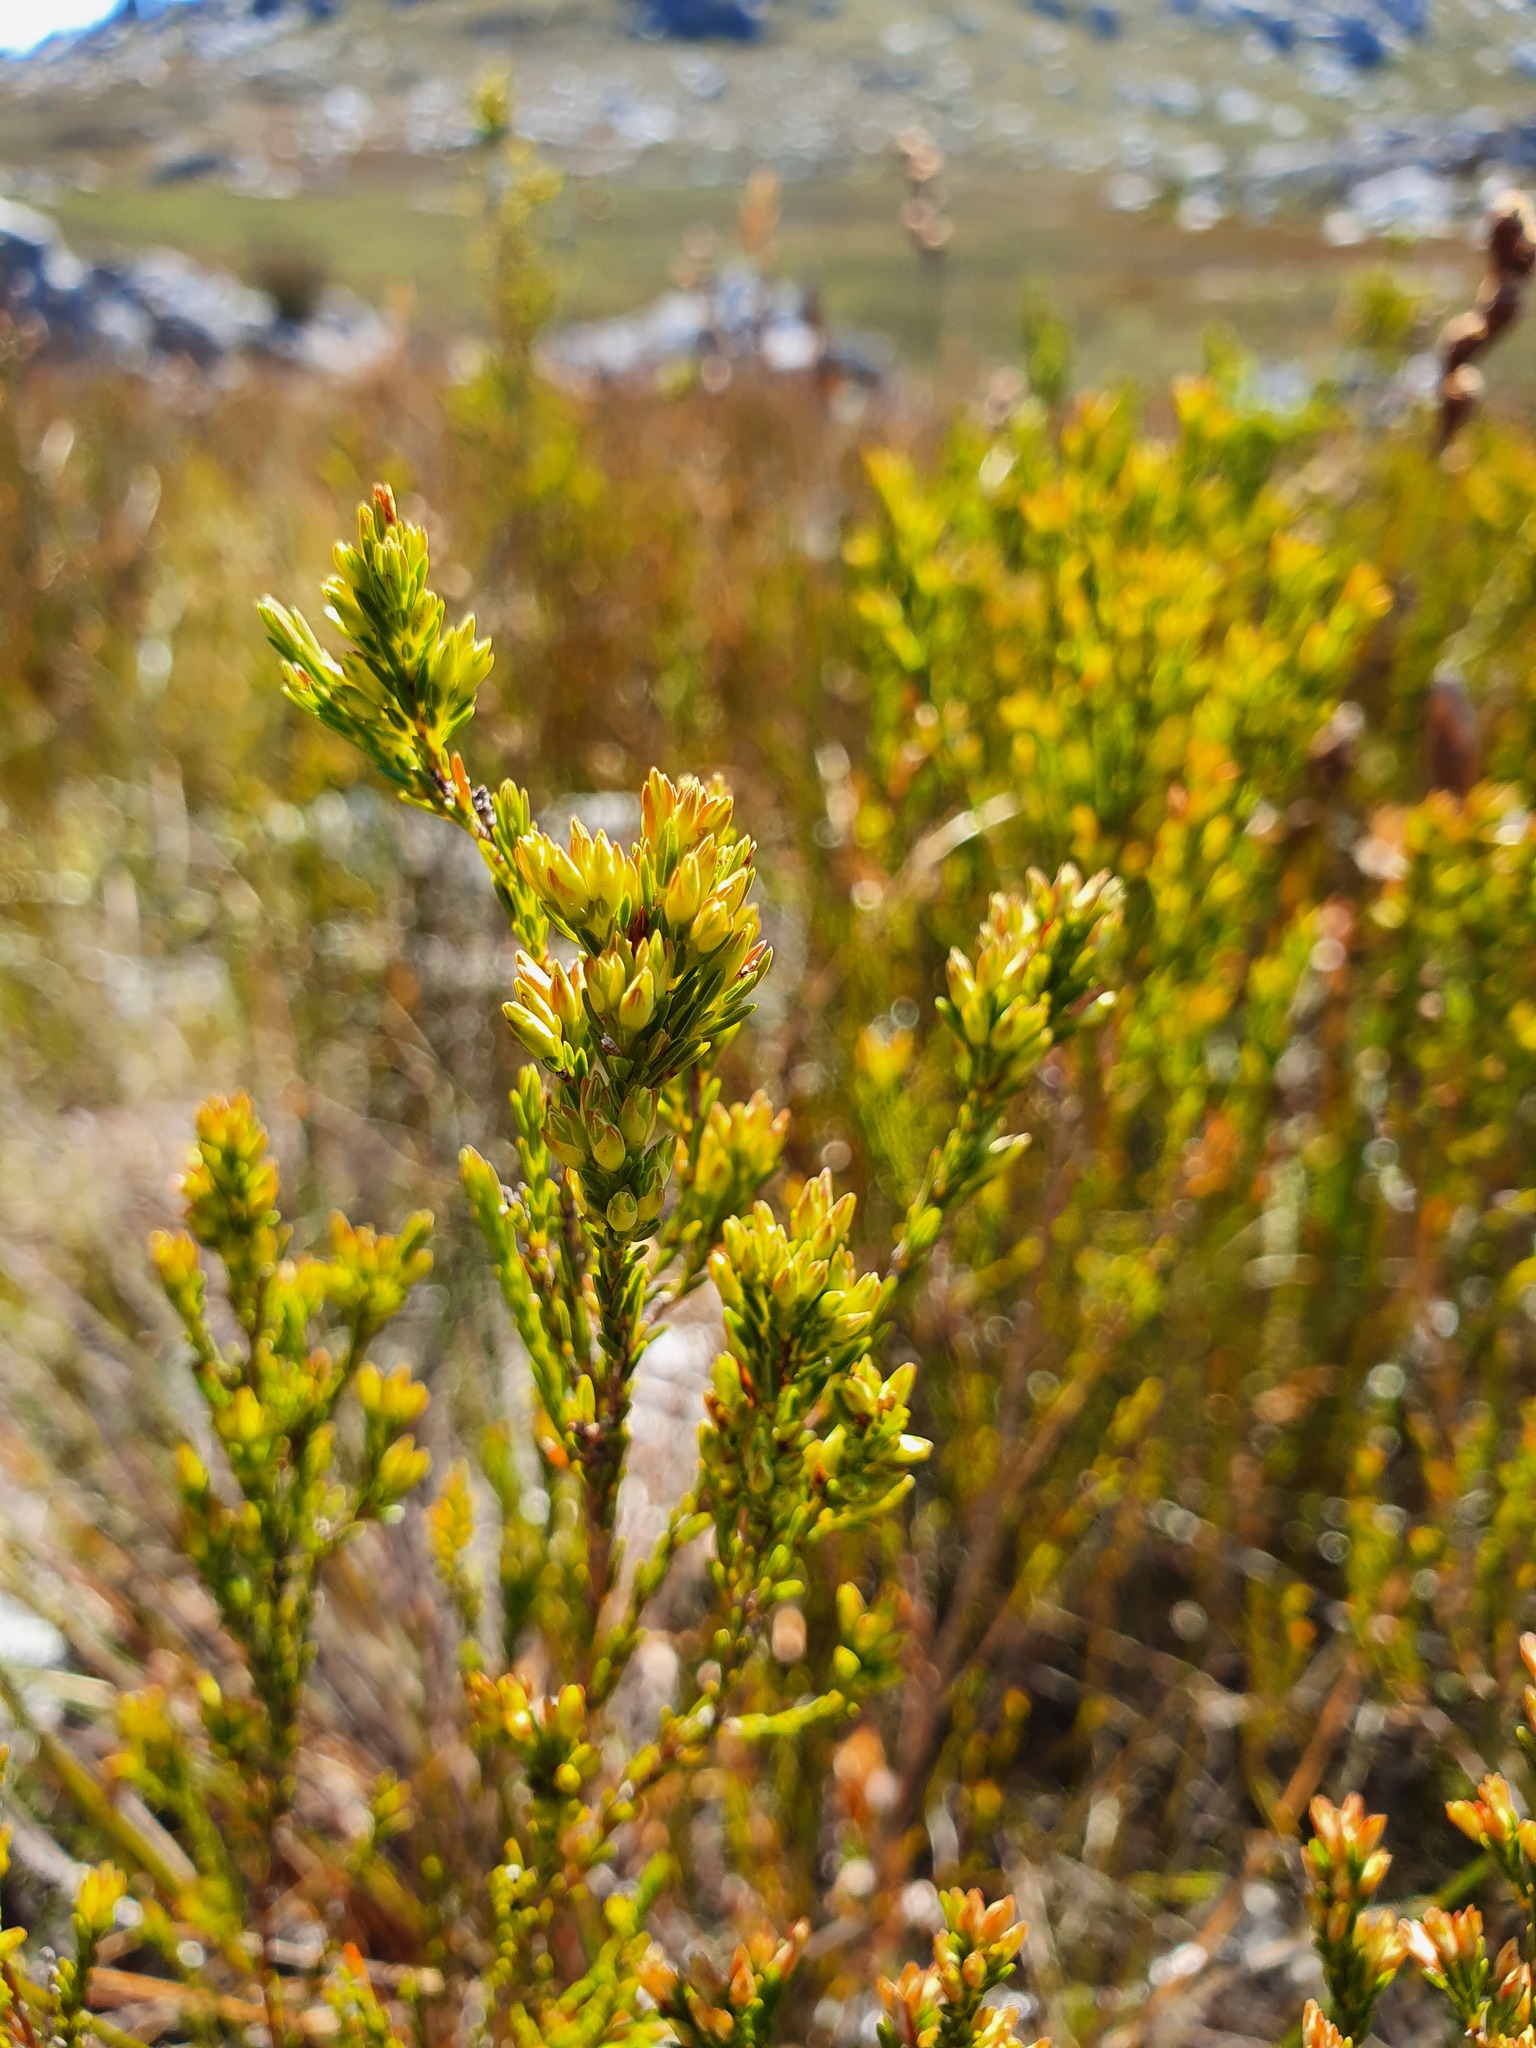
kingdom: Plantae
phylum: Tracheophyta
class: Magnoliopsida
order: Ericales
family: Ericaceae
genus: Erica
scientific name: Erica lutea
